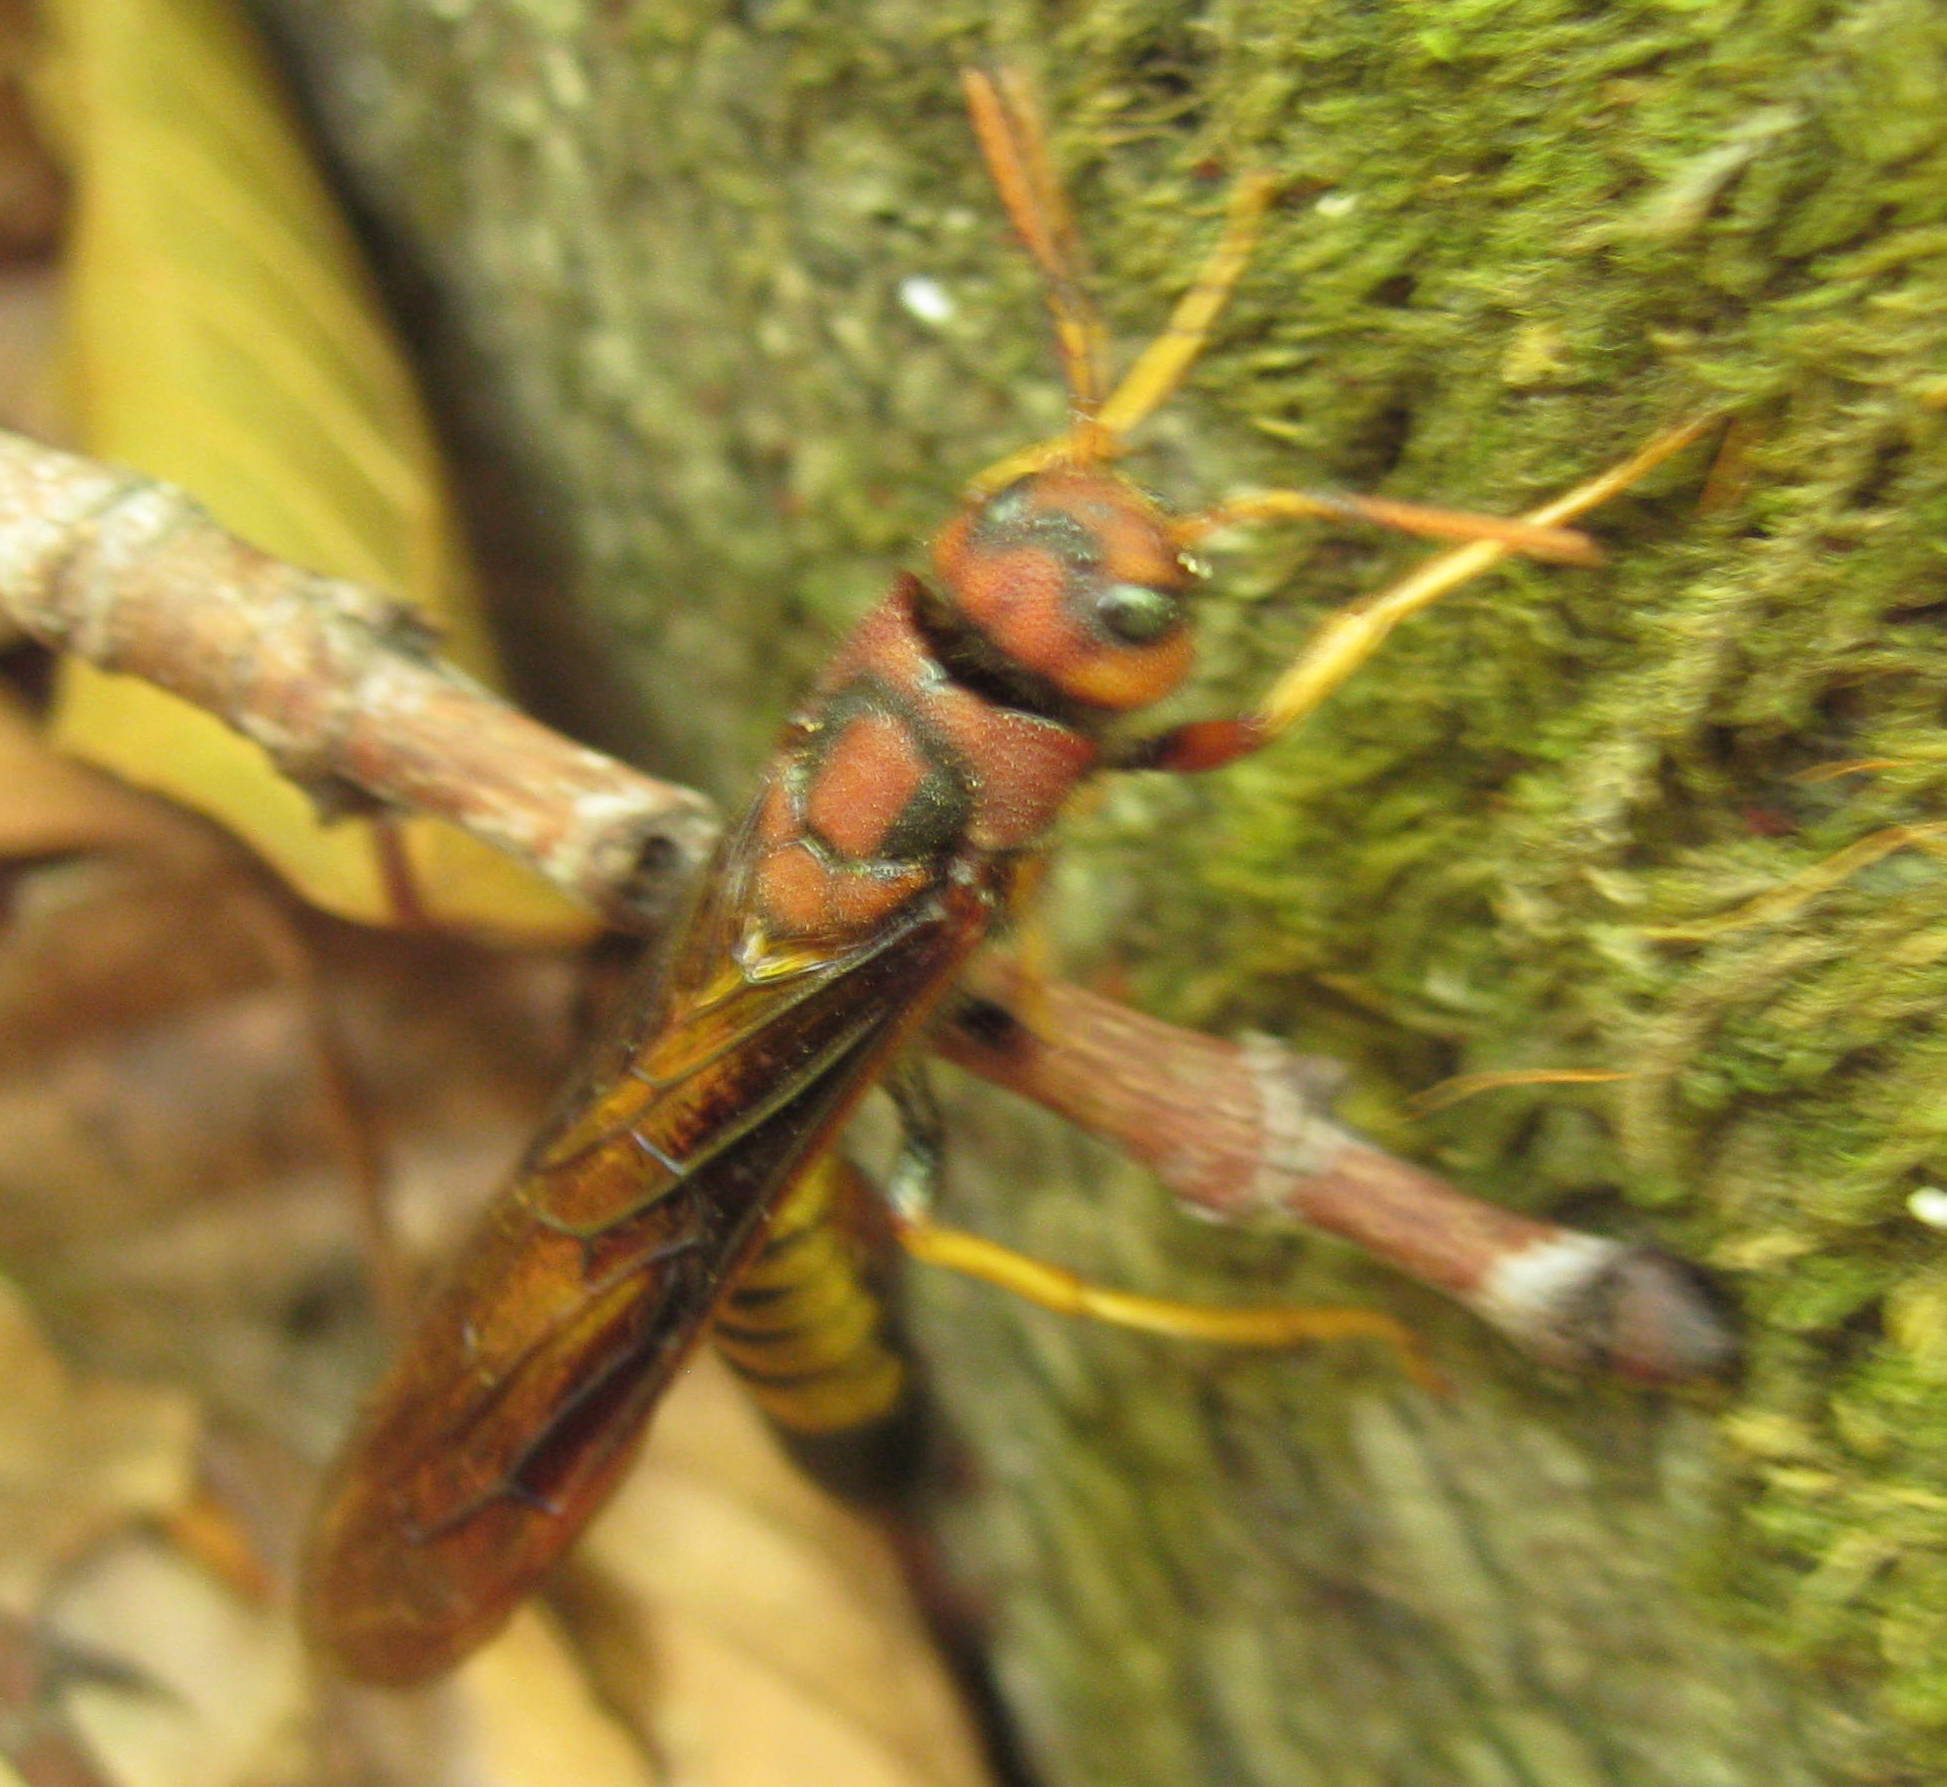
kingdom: Animalia
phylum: Arthropoda
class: Insecta
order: Hymenoptera
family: Siricidae
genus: Tremex
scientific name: Tremex columba
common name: Wasp
